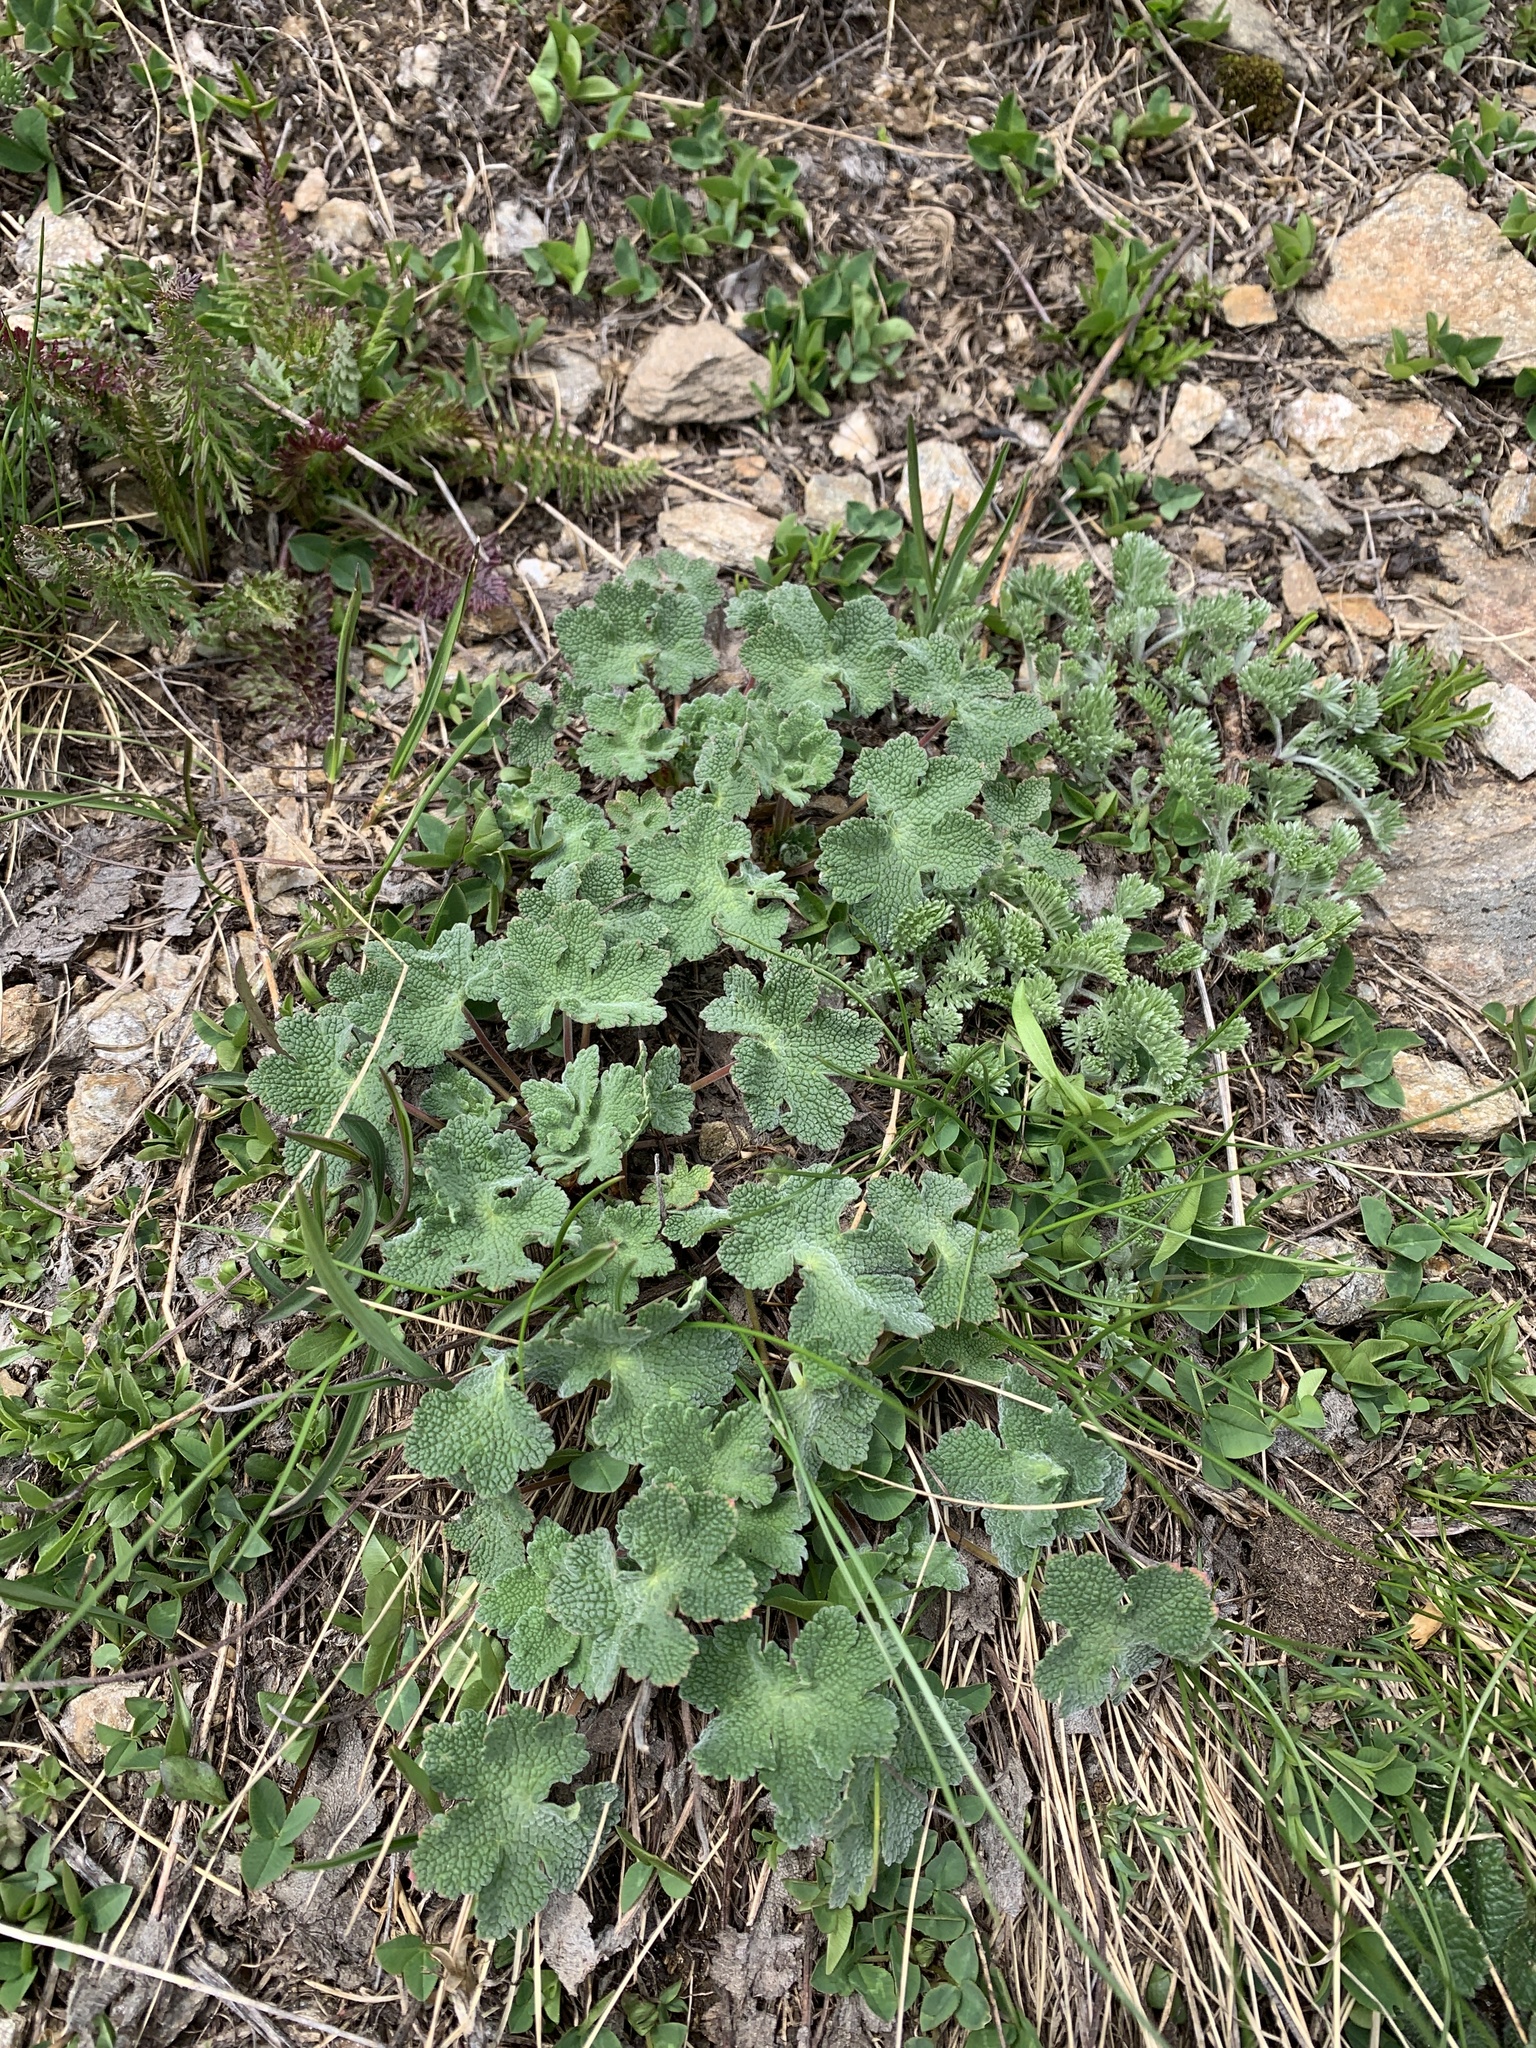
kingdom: Plantae
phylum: Tracheophyta
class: Magnoliopsida
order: Geraniales
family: Geraniaceae
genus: Geranium
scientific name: Geranium renardii
